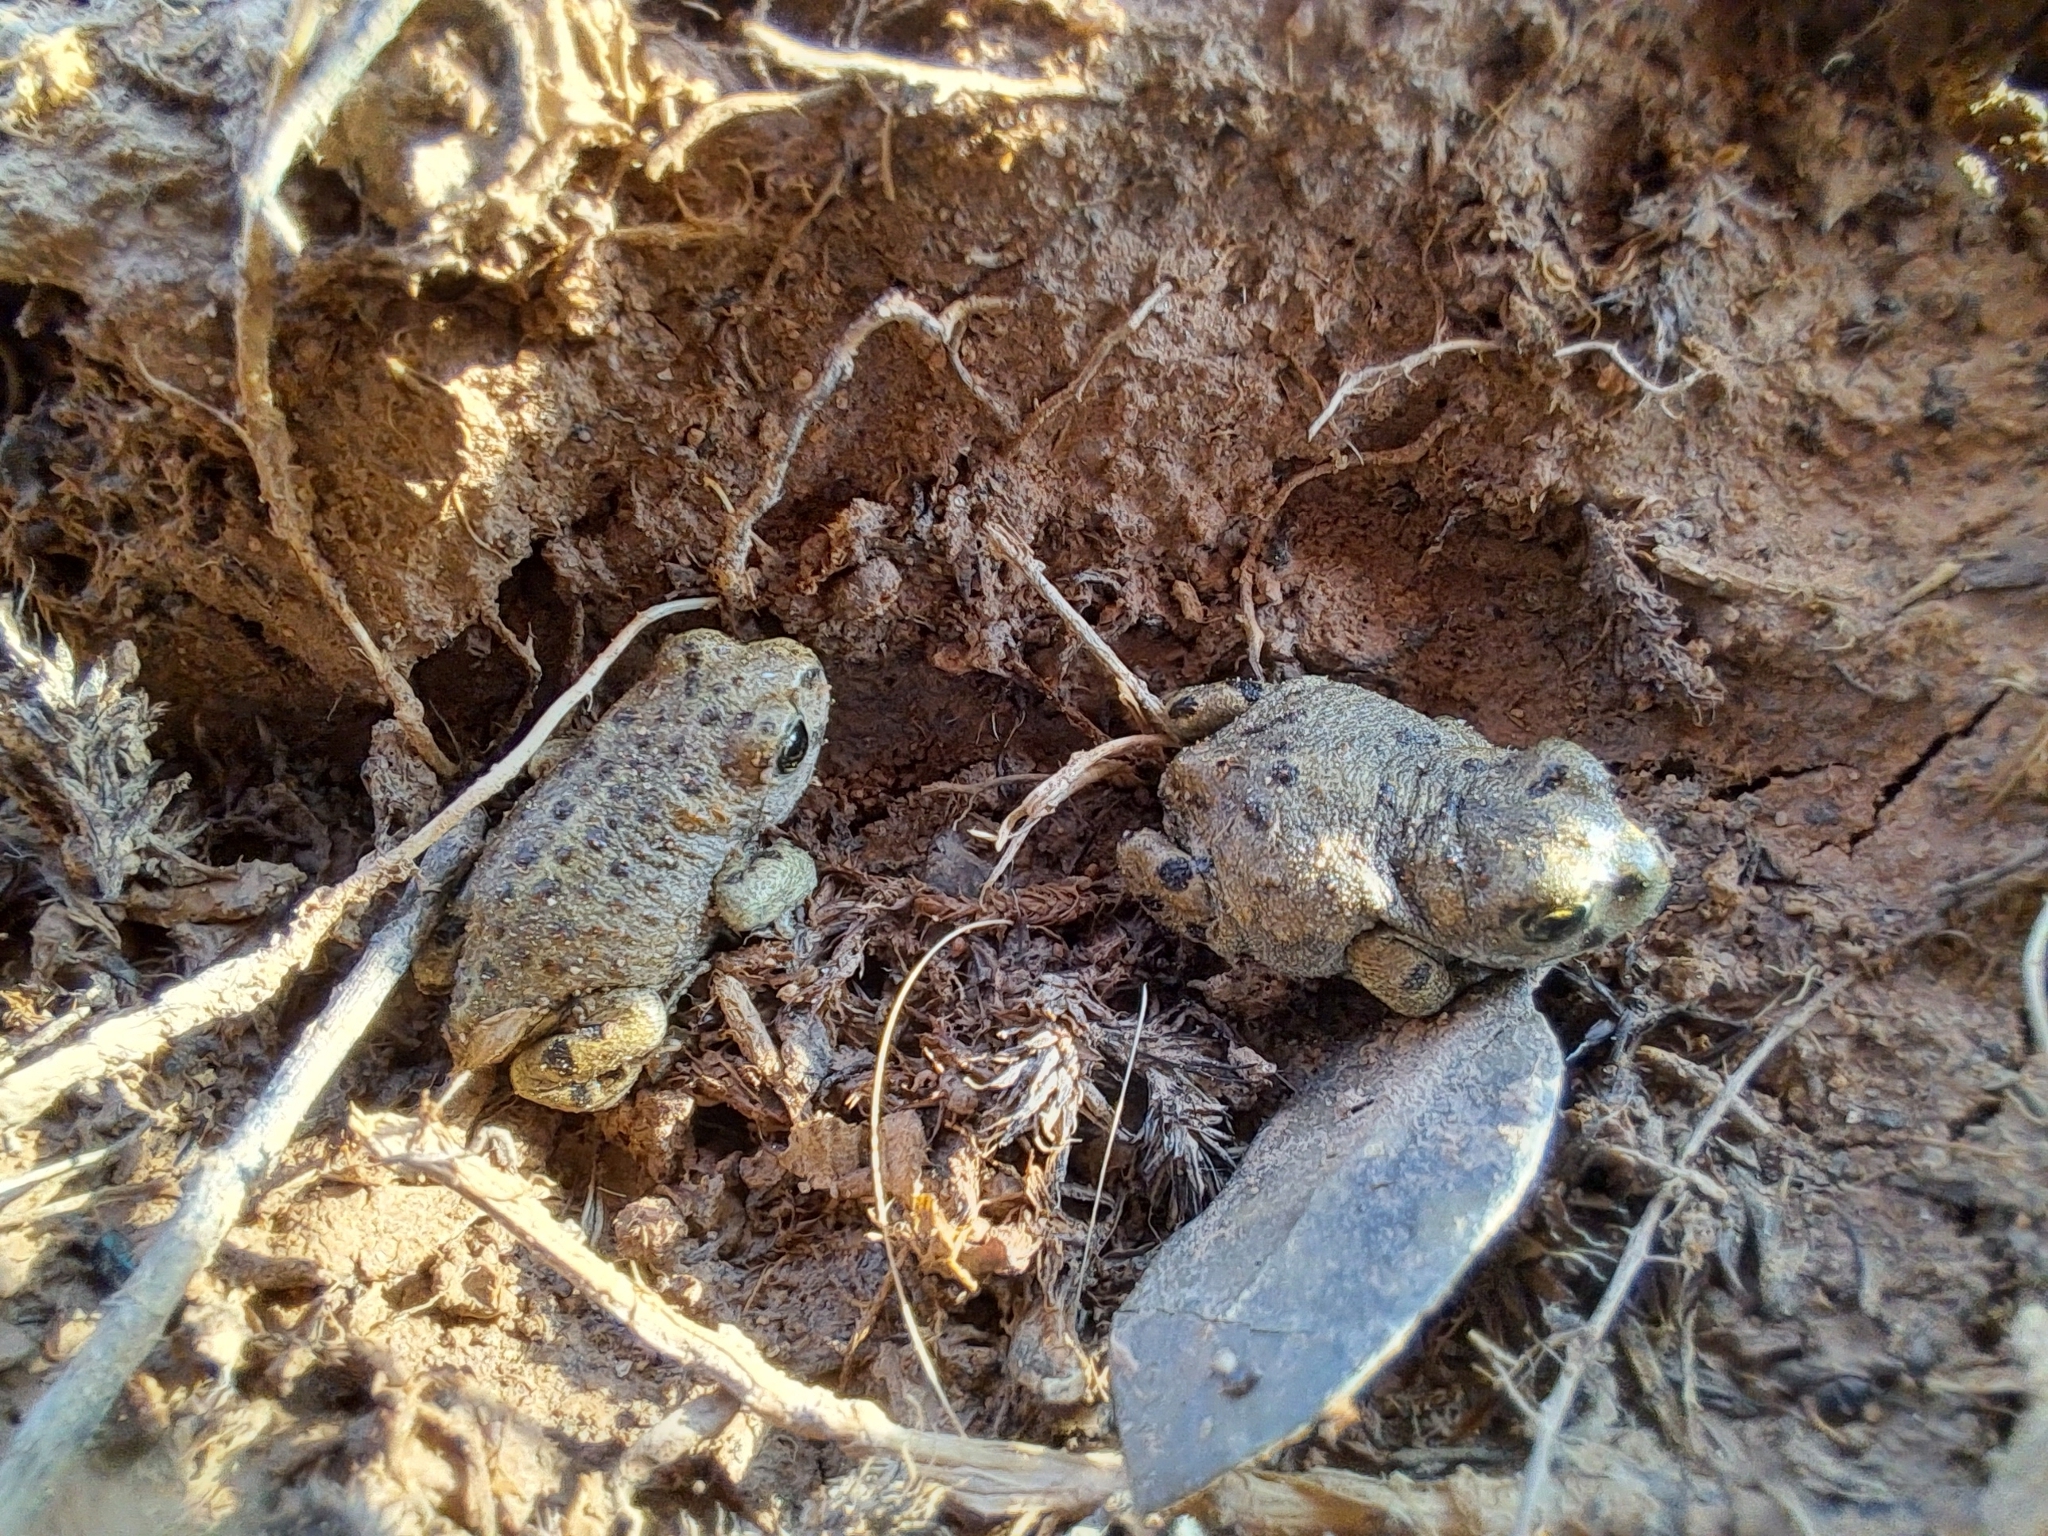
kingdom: Animalia
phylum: Chordata
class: Amphibia
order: Anura
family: Bufonidae
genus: Epidalea
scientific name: Epidalea calamita
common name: Natterjack toad
